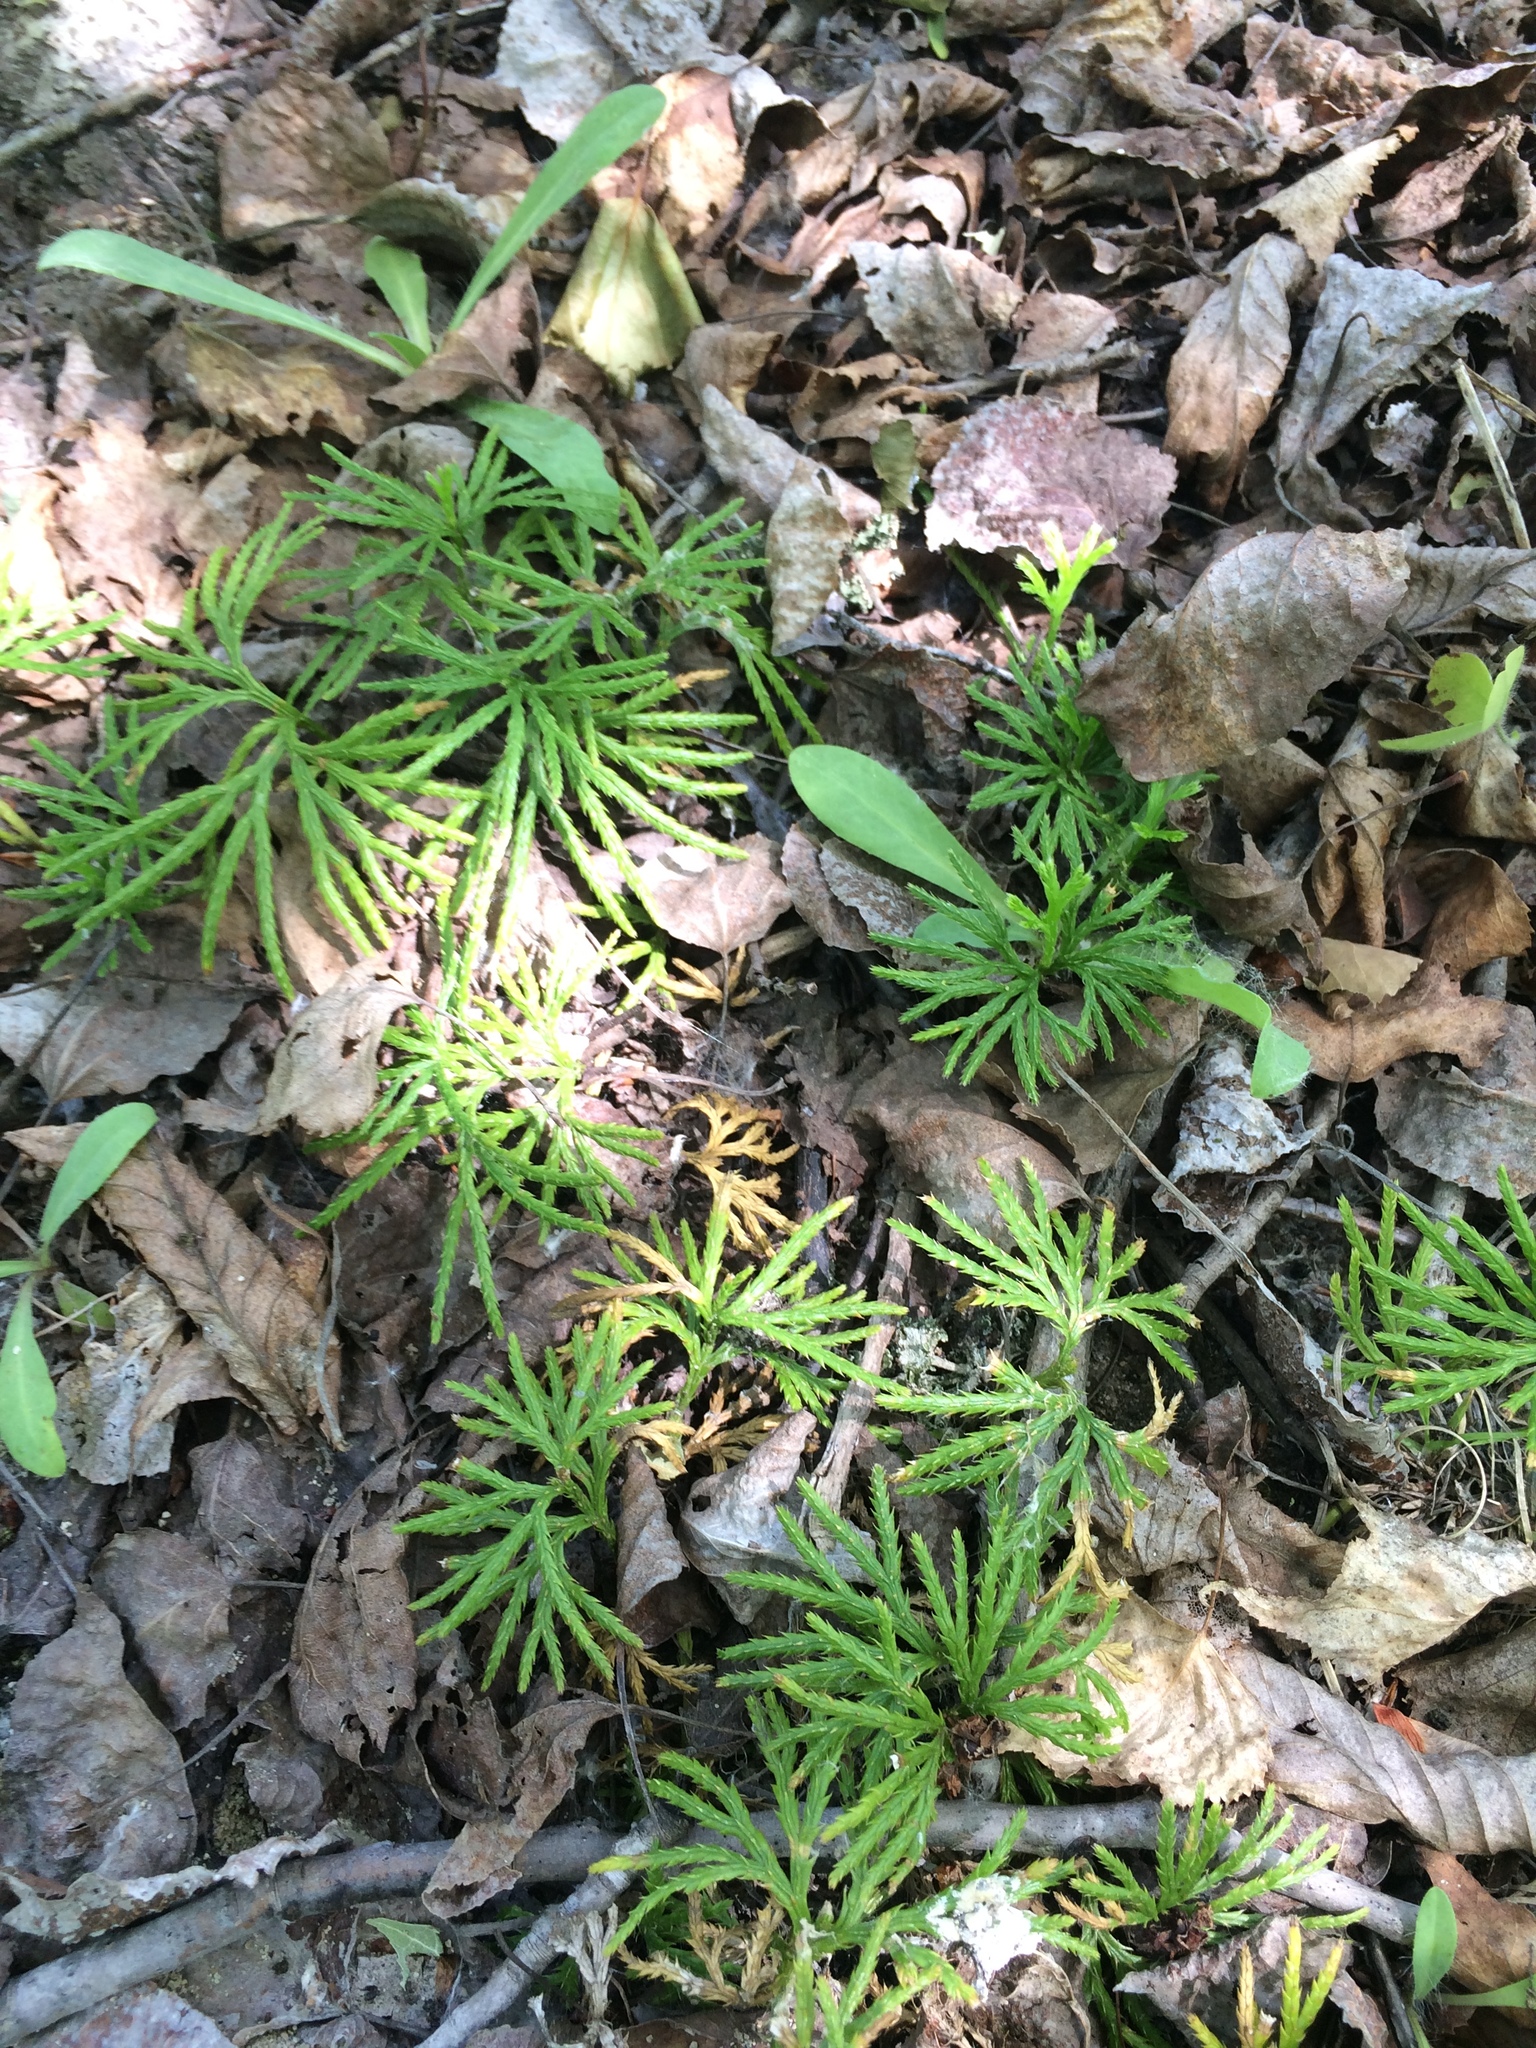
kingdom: Plantae
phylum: Tracheophyta
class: Lycopodiopsida
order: Lycopodiales
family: Lycopodiaceae
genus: Diphasiastrum
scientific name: Diphasiastrum digitatum
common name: Southern running-pine
